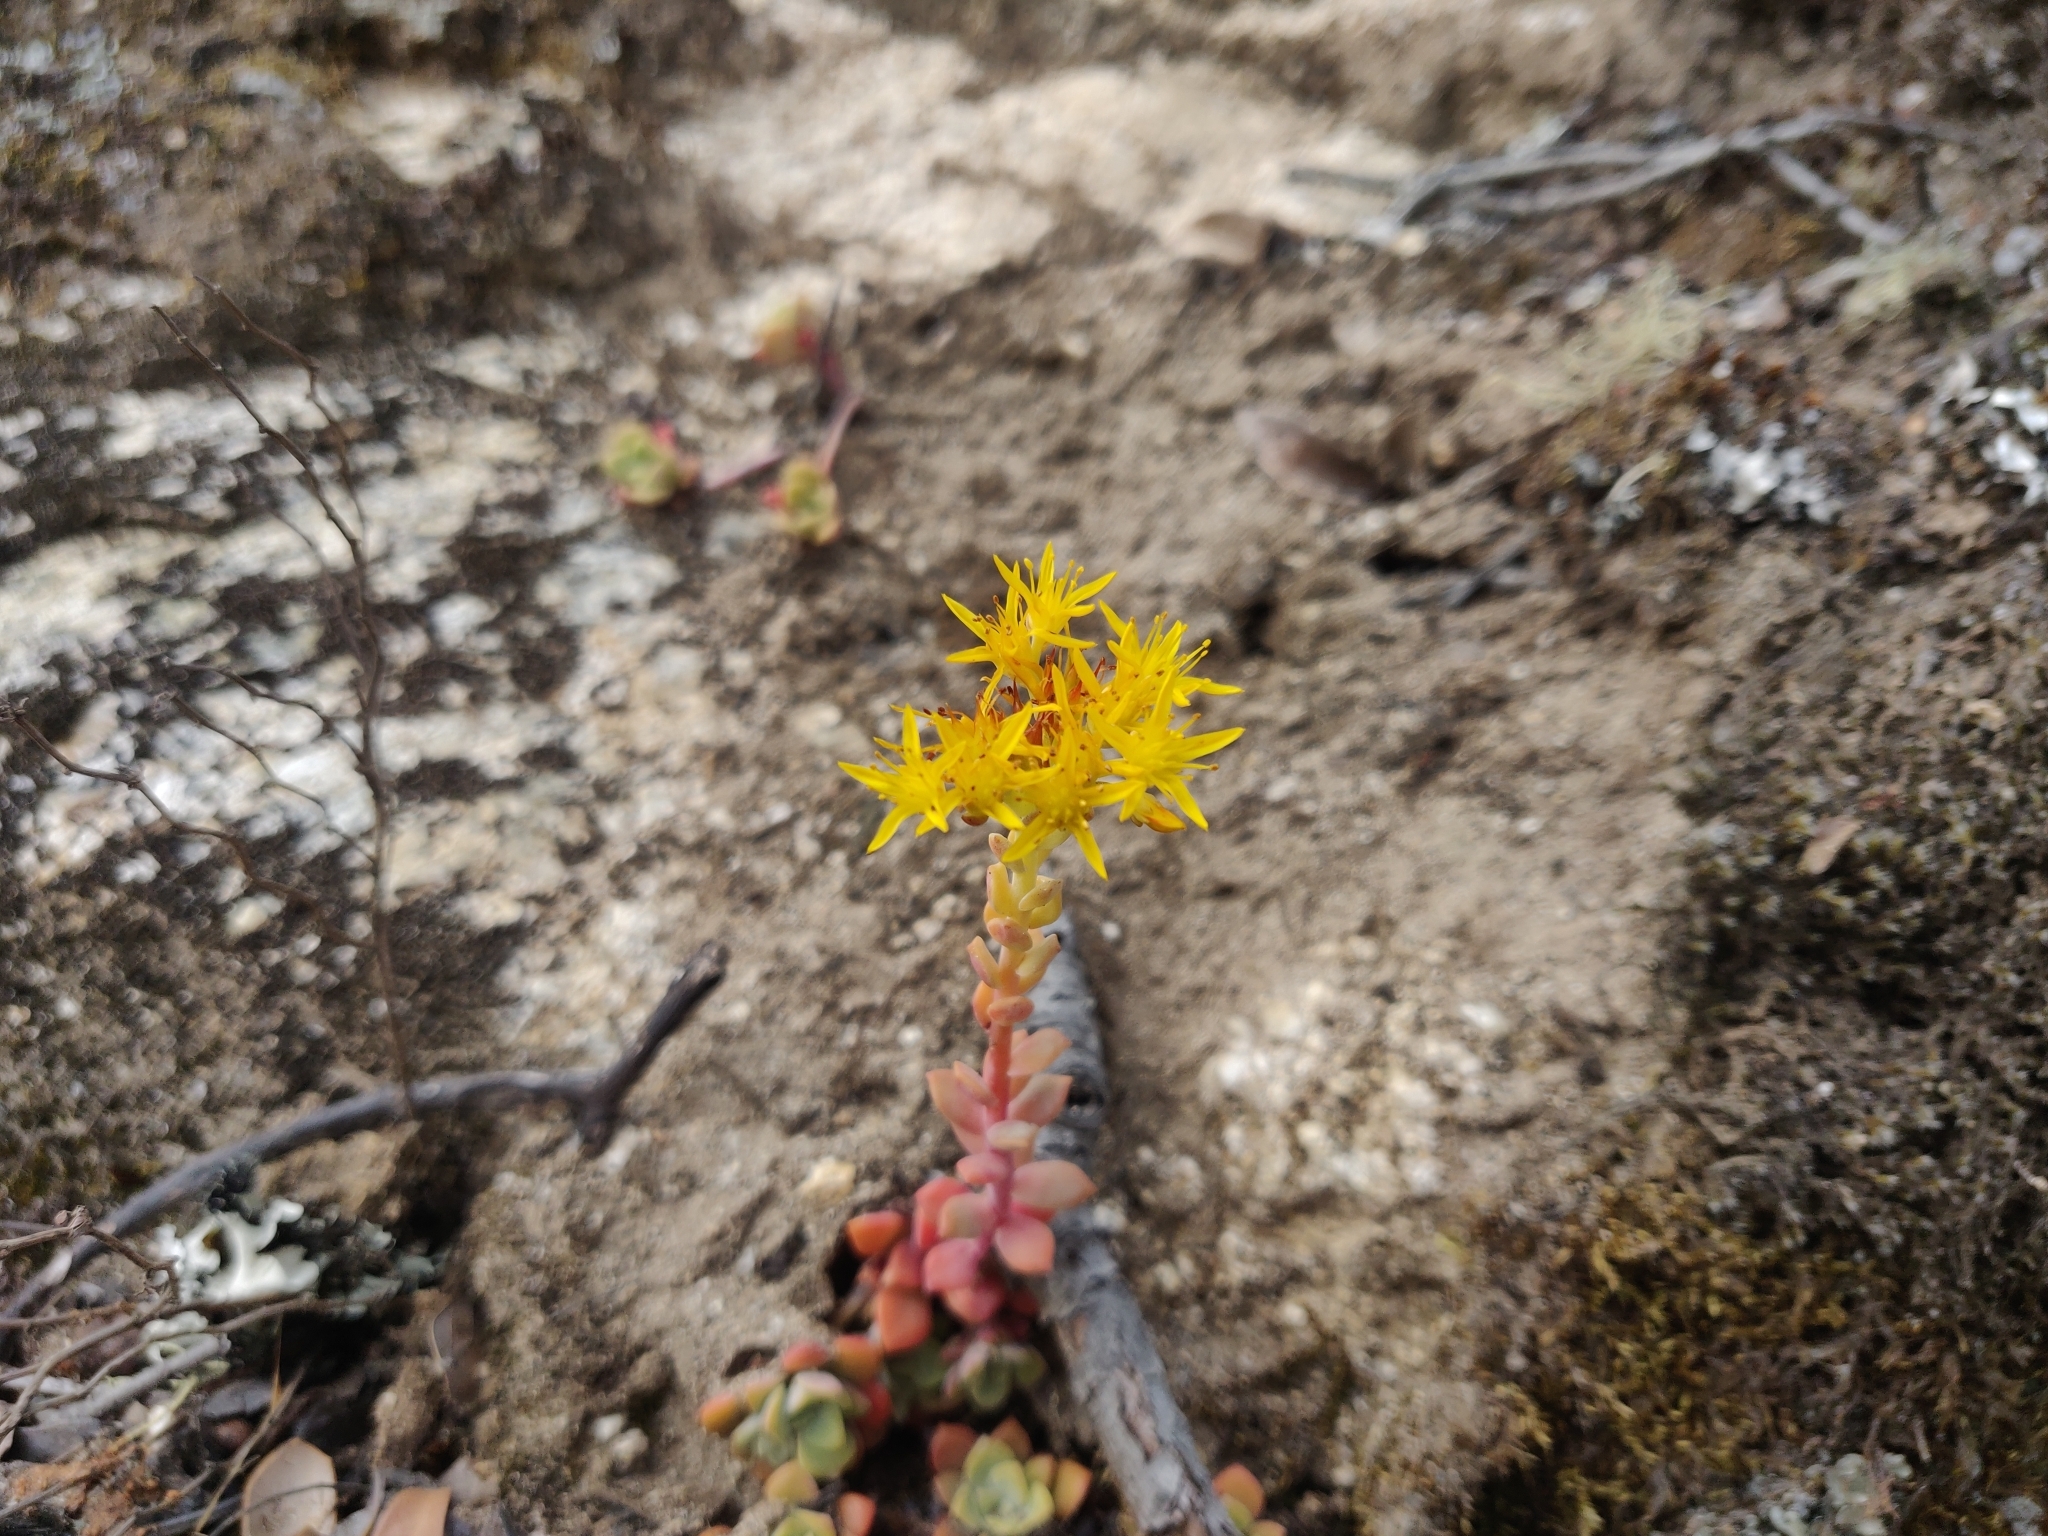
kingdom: Plantae
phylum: Tracheophyta
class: Magnoliopsida
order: Saxifragales
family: Crassulaceae
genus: Sedum
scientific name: Sedum spathulifolium
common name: Colorado stonecrop
